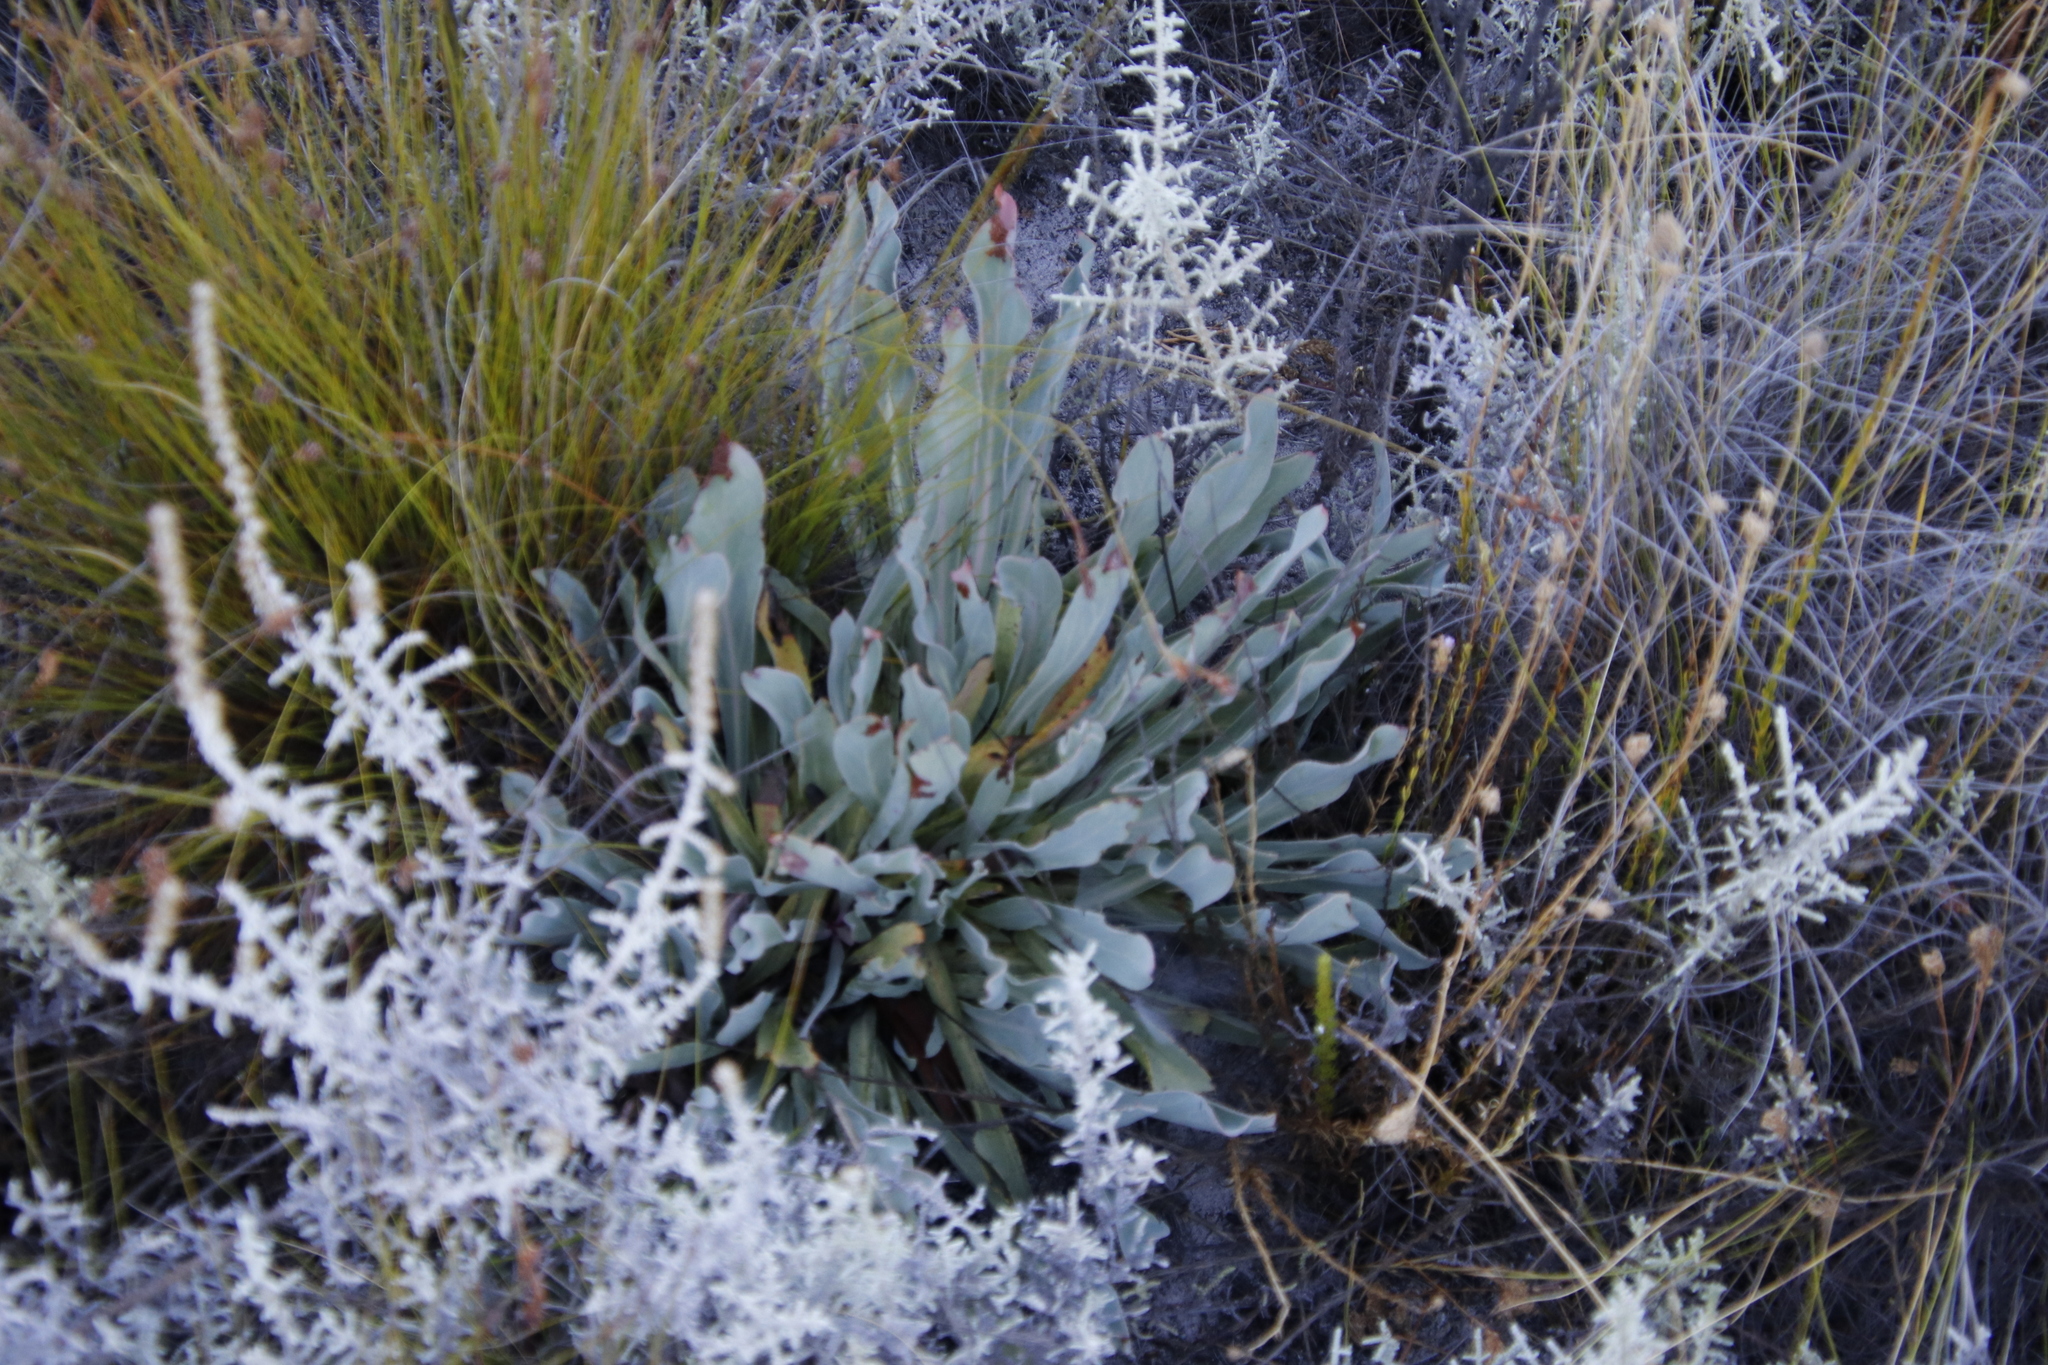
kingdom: Plantae
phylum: Tracheophyta
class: Magnoliopsida
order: Proteales
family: Proteaceae
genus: Protea
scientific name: Protea laevis
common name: Smooth-leaf sugarbush
